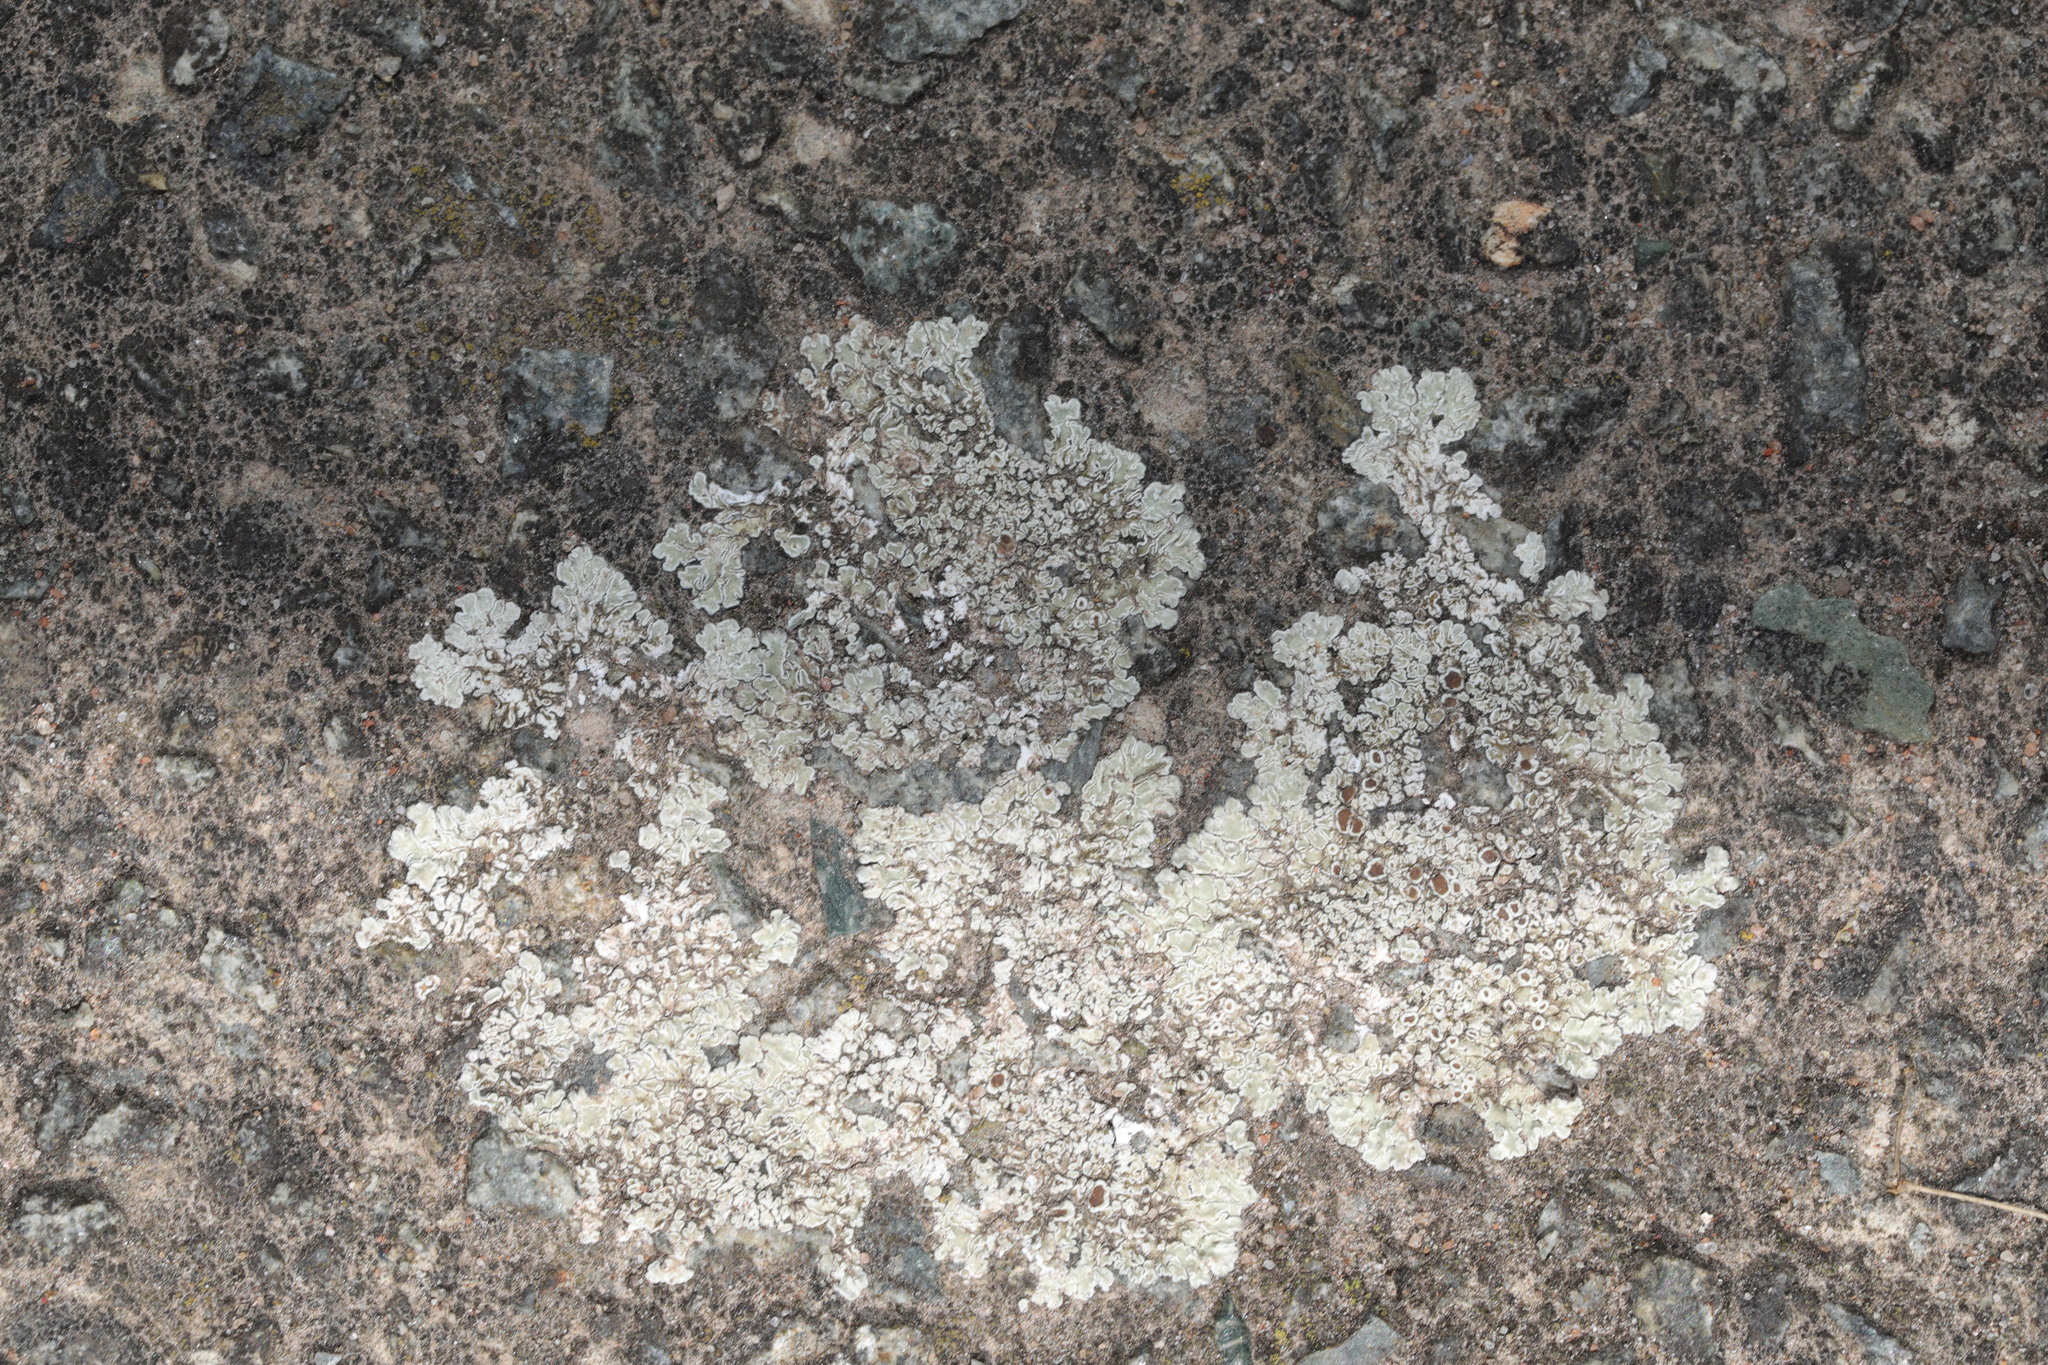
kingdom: Fungi
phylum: Ascomycota
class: Lecanoromycetes
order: Lecanorales
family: Lecanoraceae
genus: Protoparmeliopsis
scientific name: Protoparmeliopsis muralis
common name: Stonewall rim lichen
